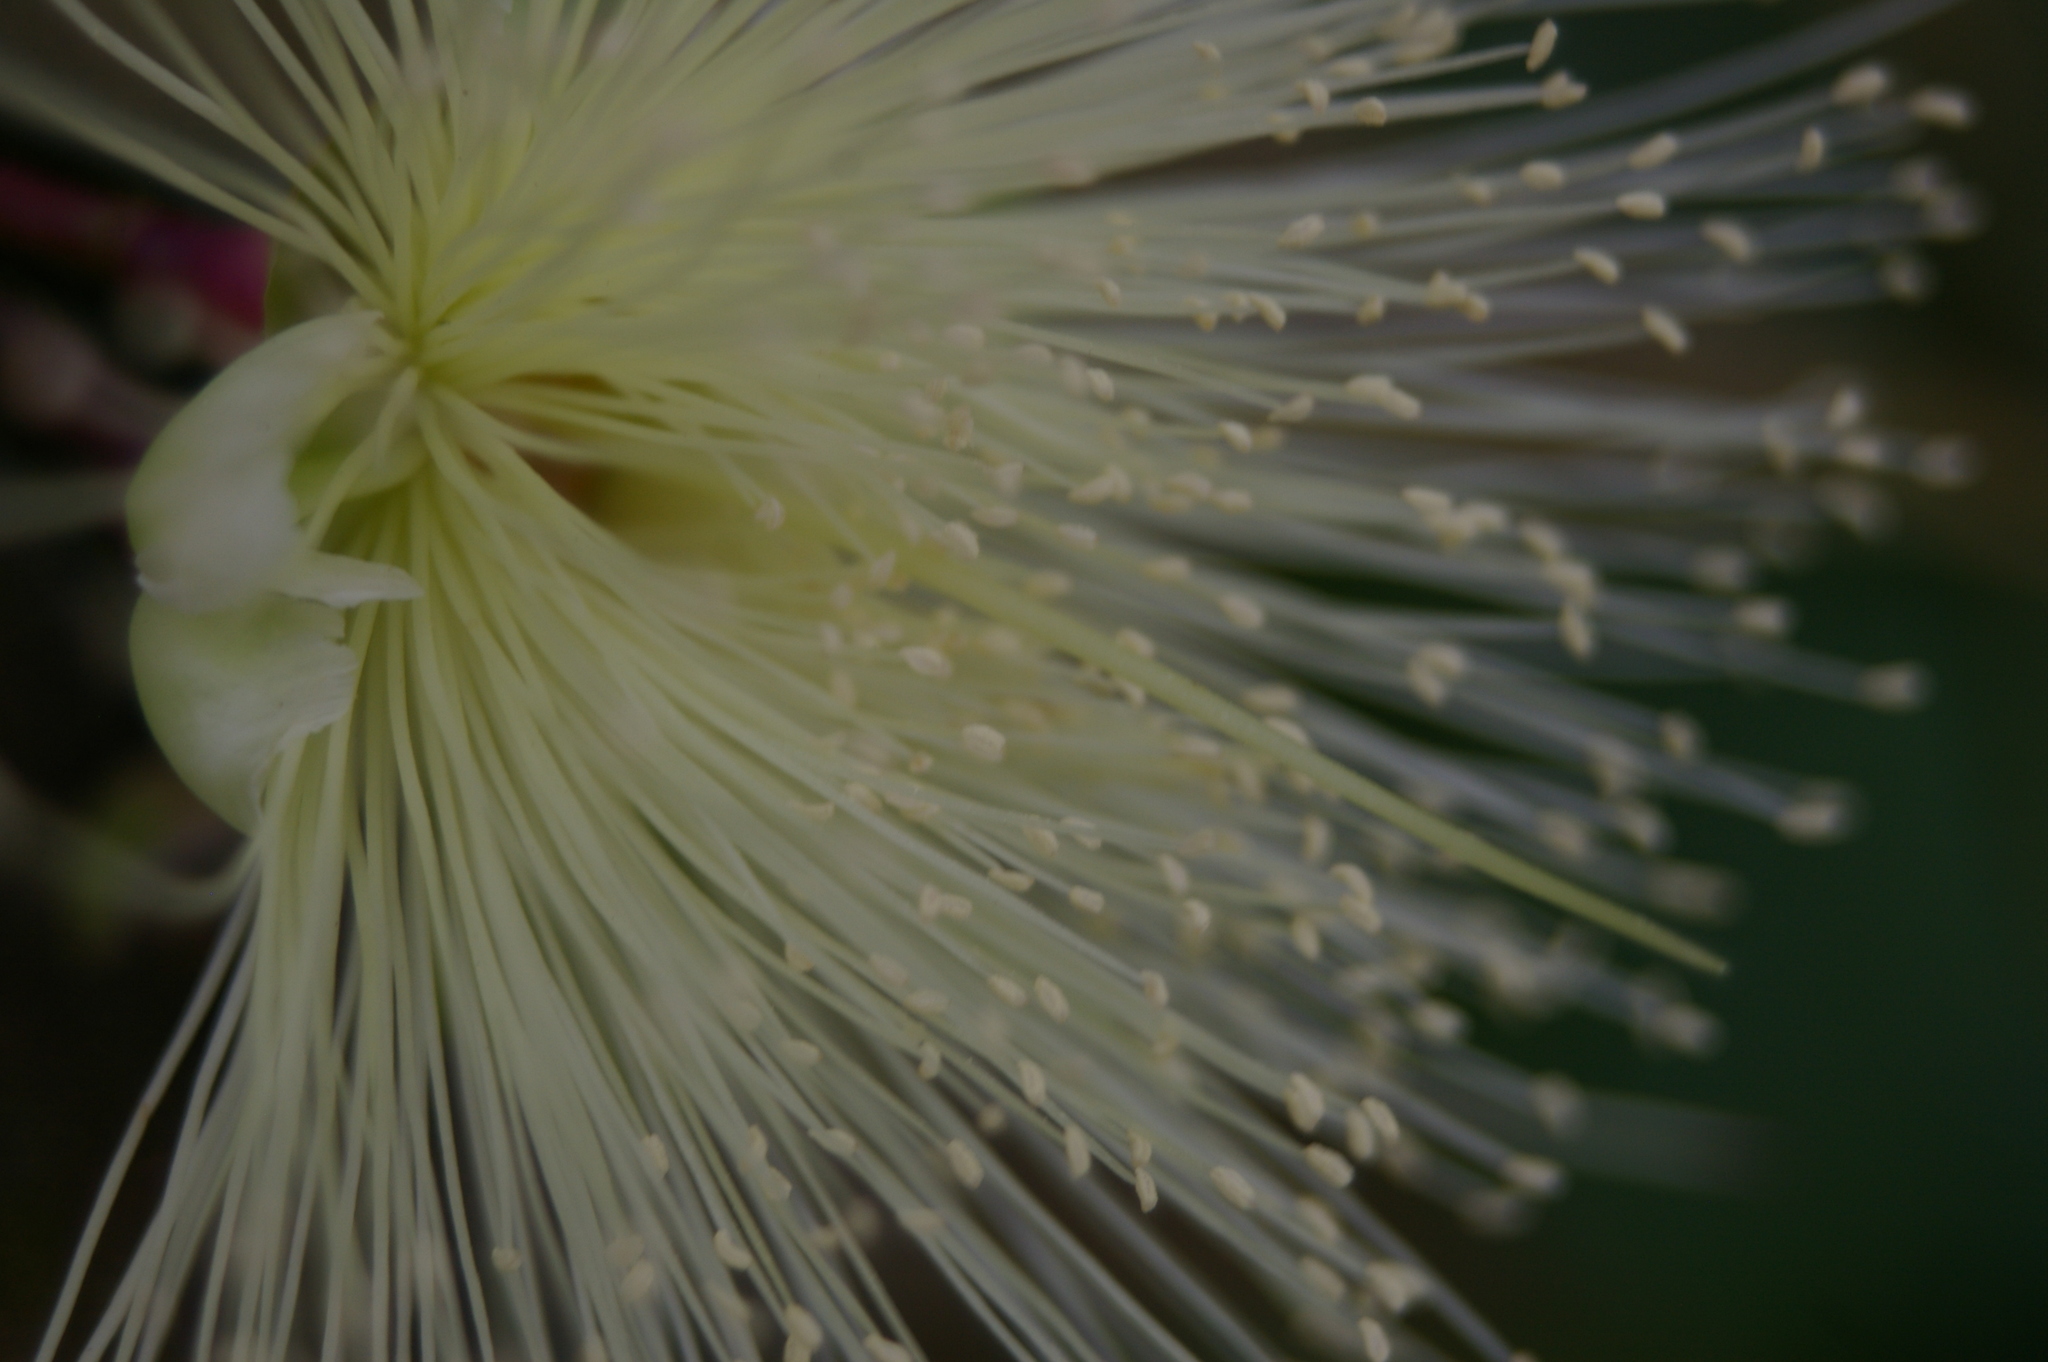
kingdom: Plantae
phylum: Tracheophyta
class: Magnoliopsida
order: Myrtales
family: Myrtaceae
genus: Syzygium
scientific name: Syzygium jambos
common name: Malabar plum
